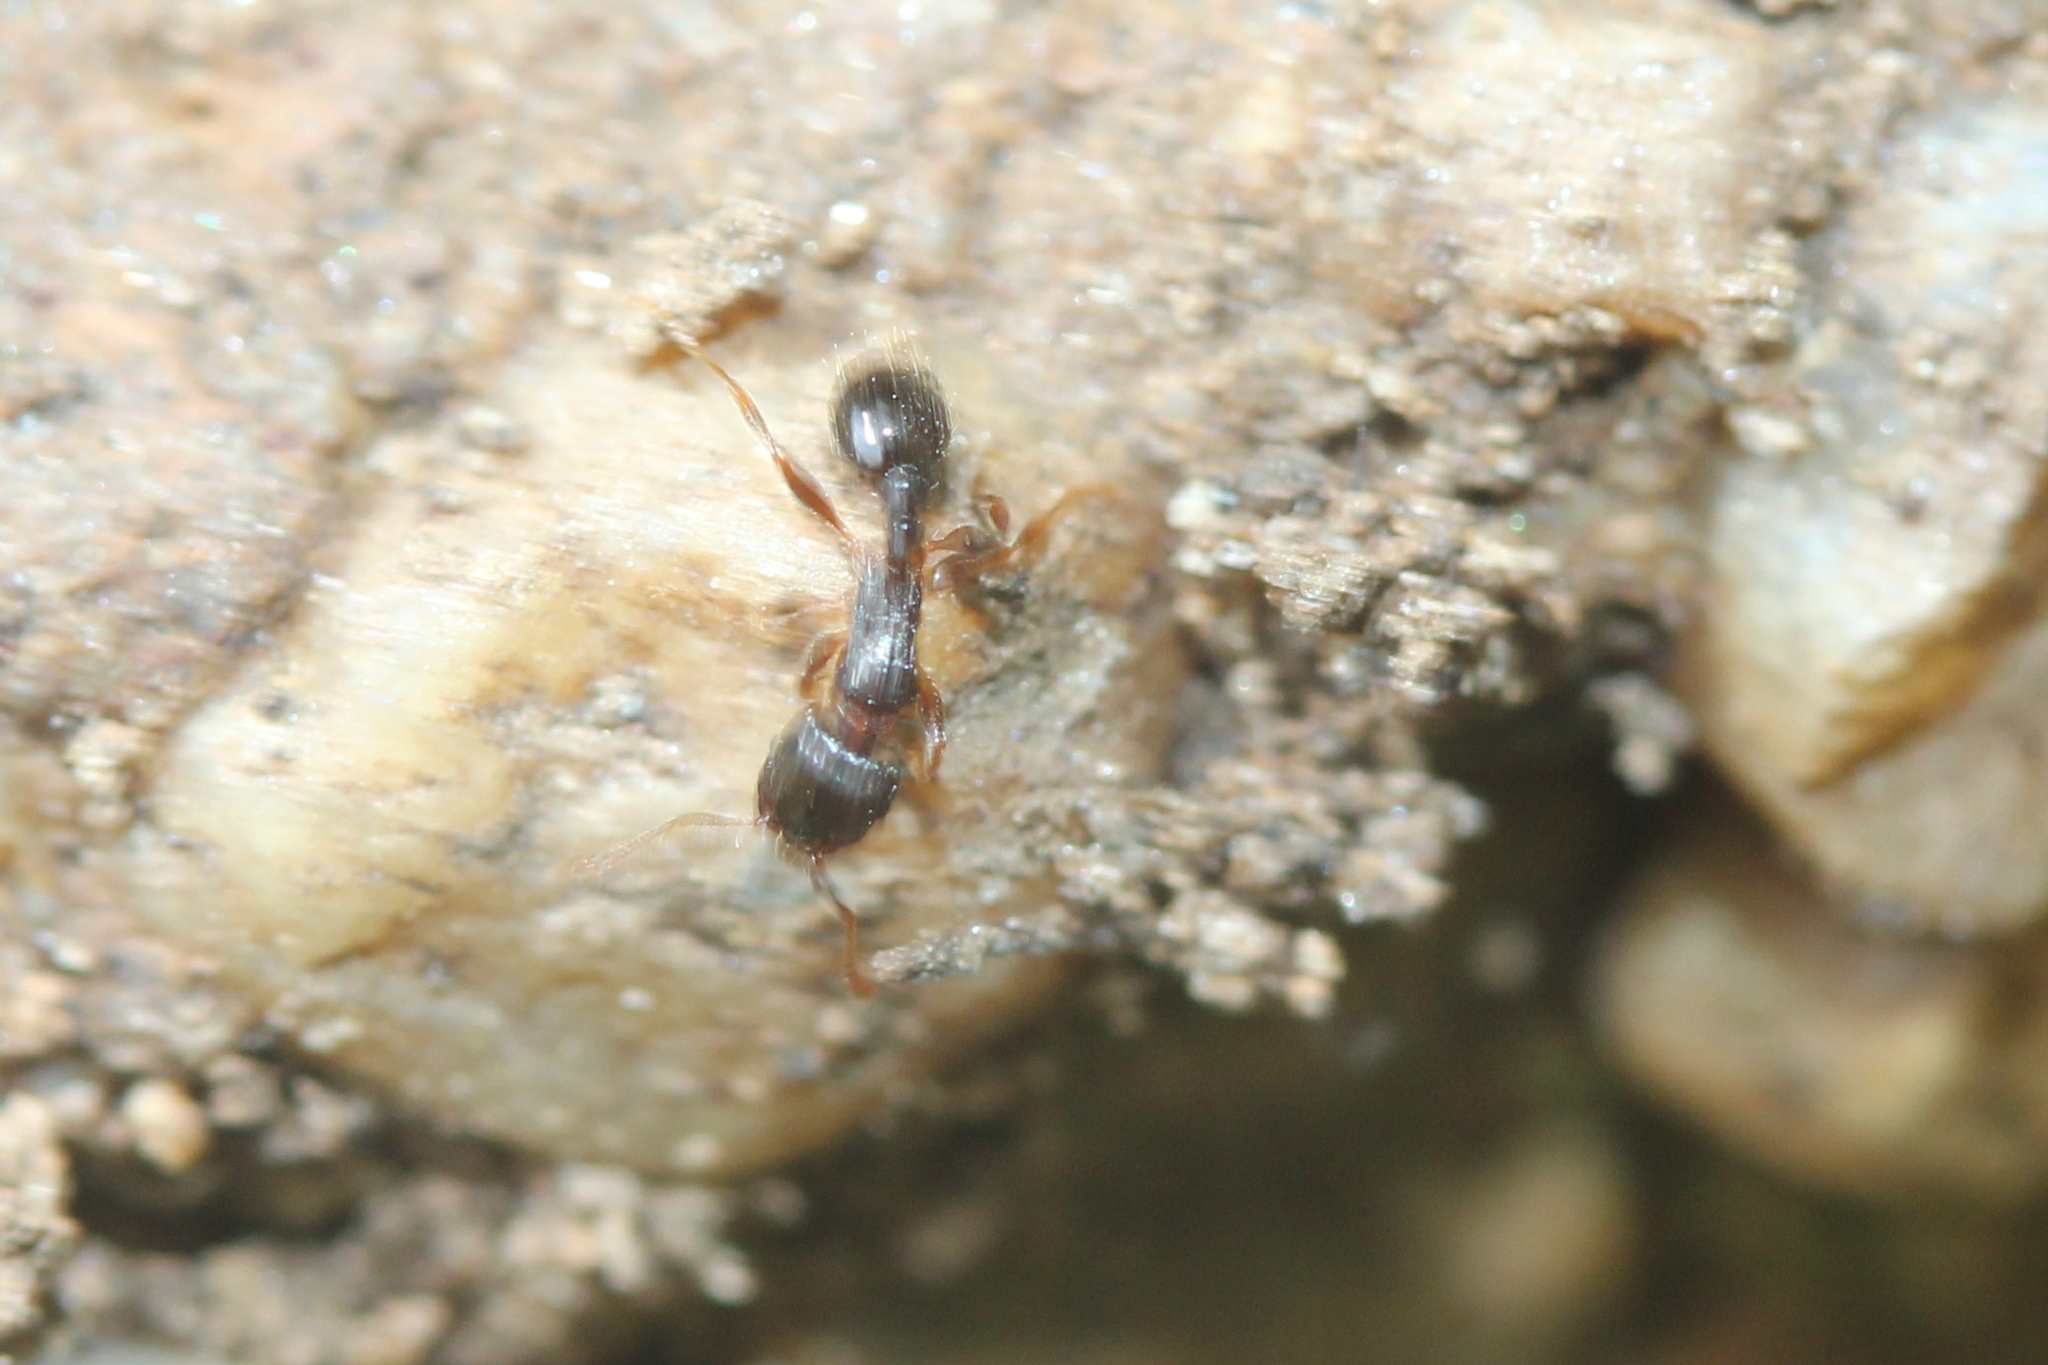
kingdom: Animalia
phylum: Arthropoda
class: Insecta
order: Hymenoptera
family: Formicidae
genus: Tetramorium
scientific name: Tetramorium immigrans
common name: Pavement ant
